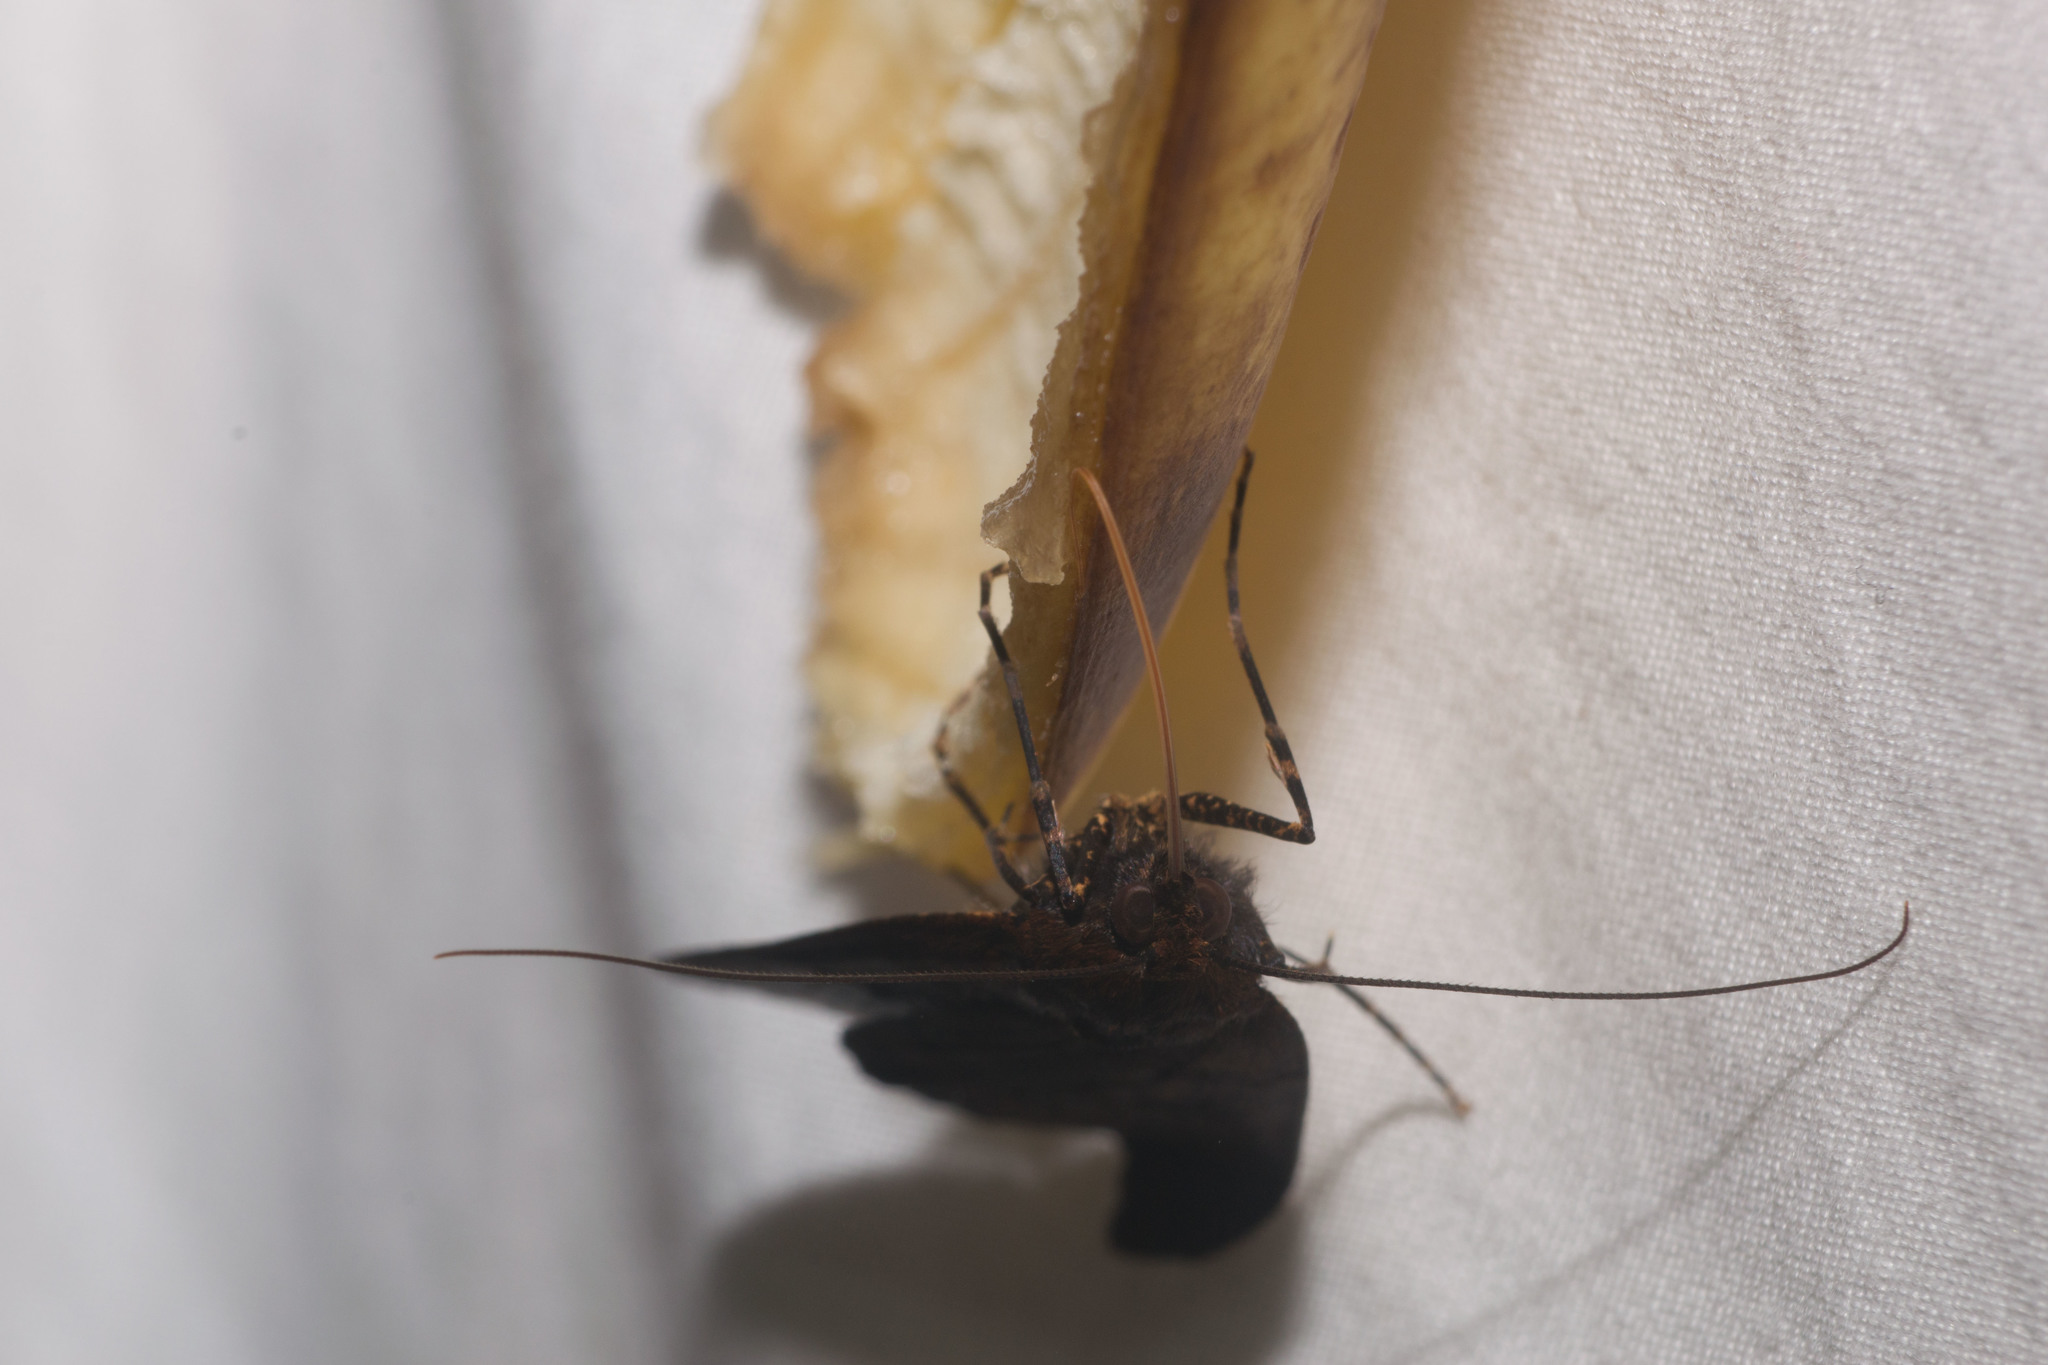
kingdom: Animalia
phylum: Arthropoda
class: Insecta
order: Lepidoptera
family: Geometridae
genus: Scotorythra
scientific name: Scotorythra rara
